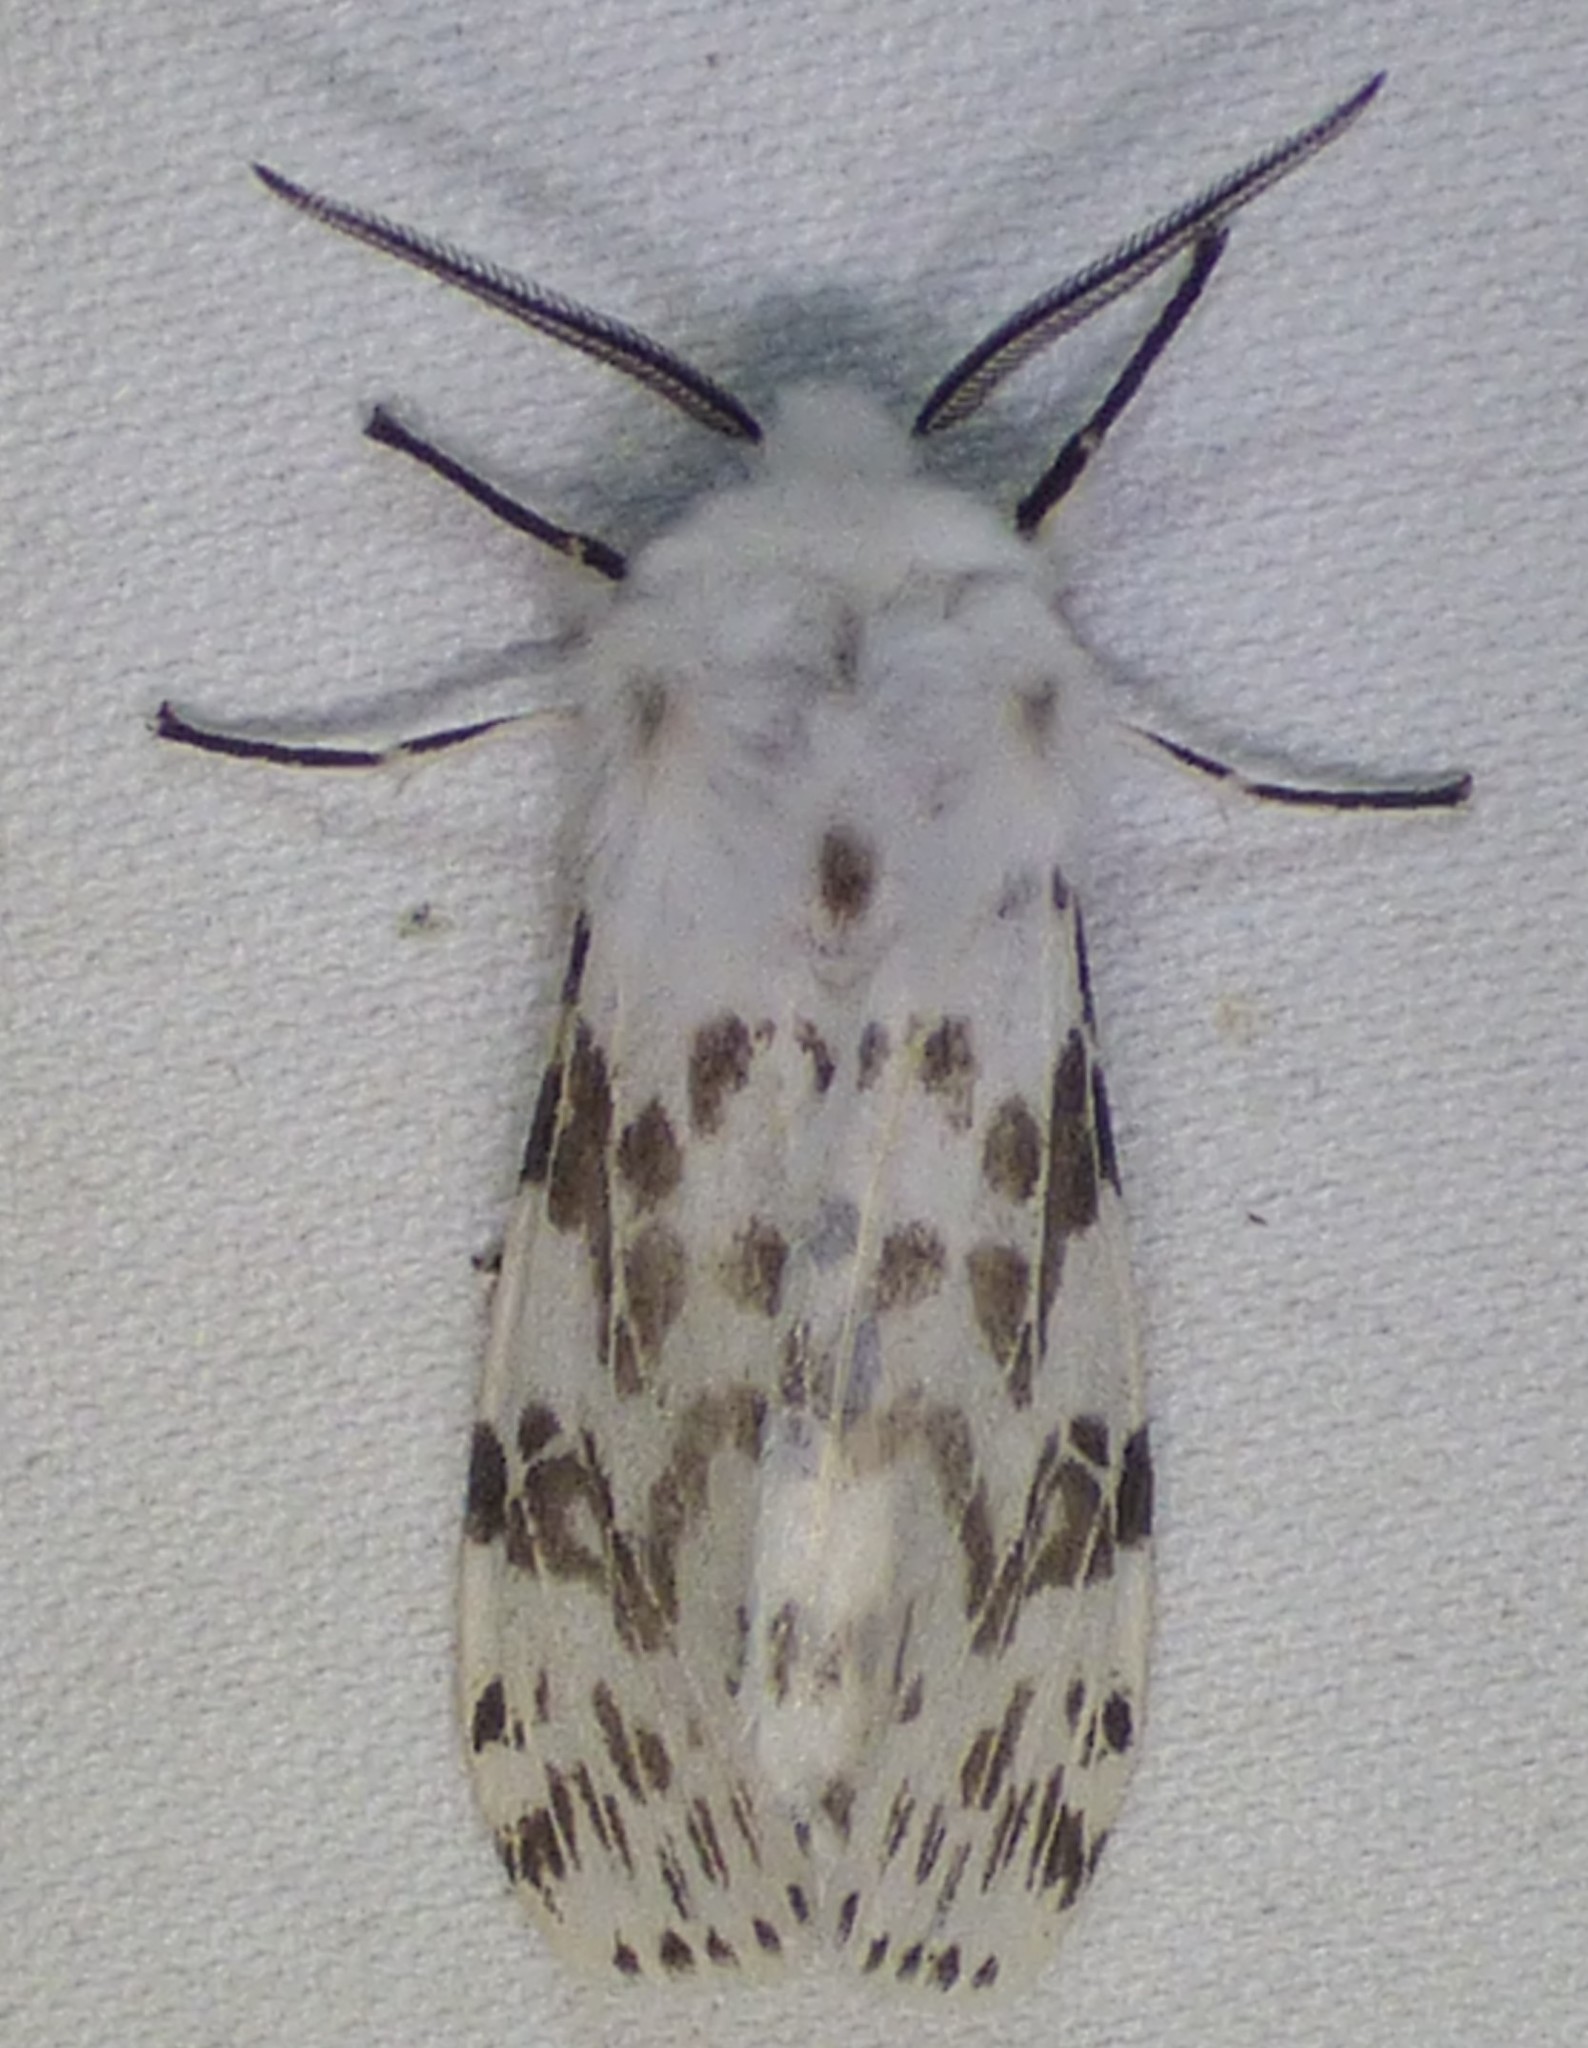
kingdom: Animalia
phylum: Arthropoda
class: Insecta
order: Lepidoptera
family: Erebidae
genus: Hyphantria
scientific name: Hyphantria cunea
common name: American white moth
